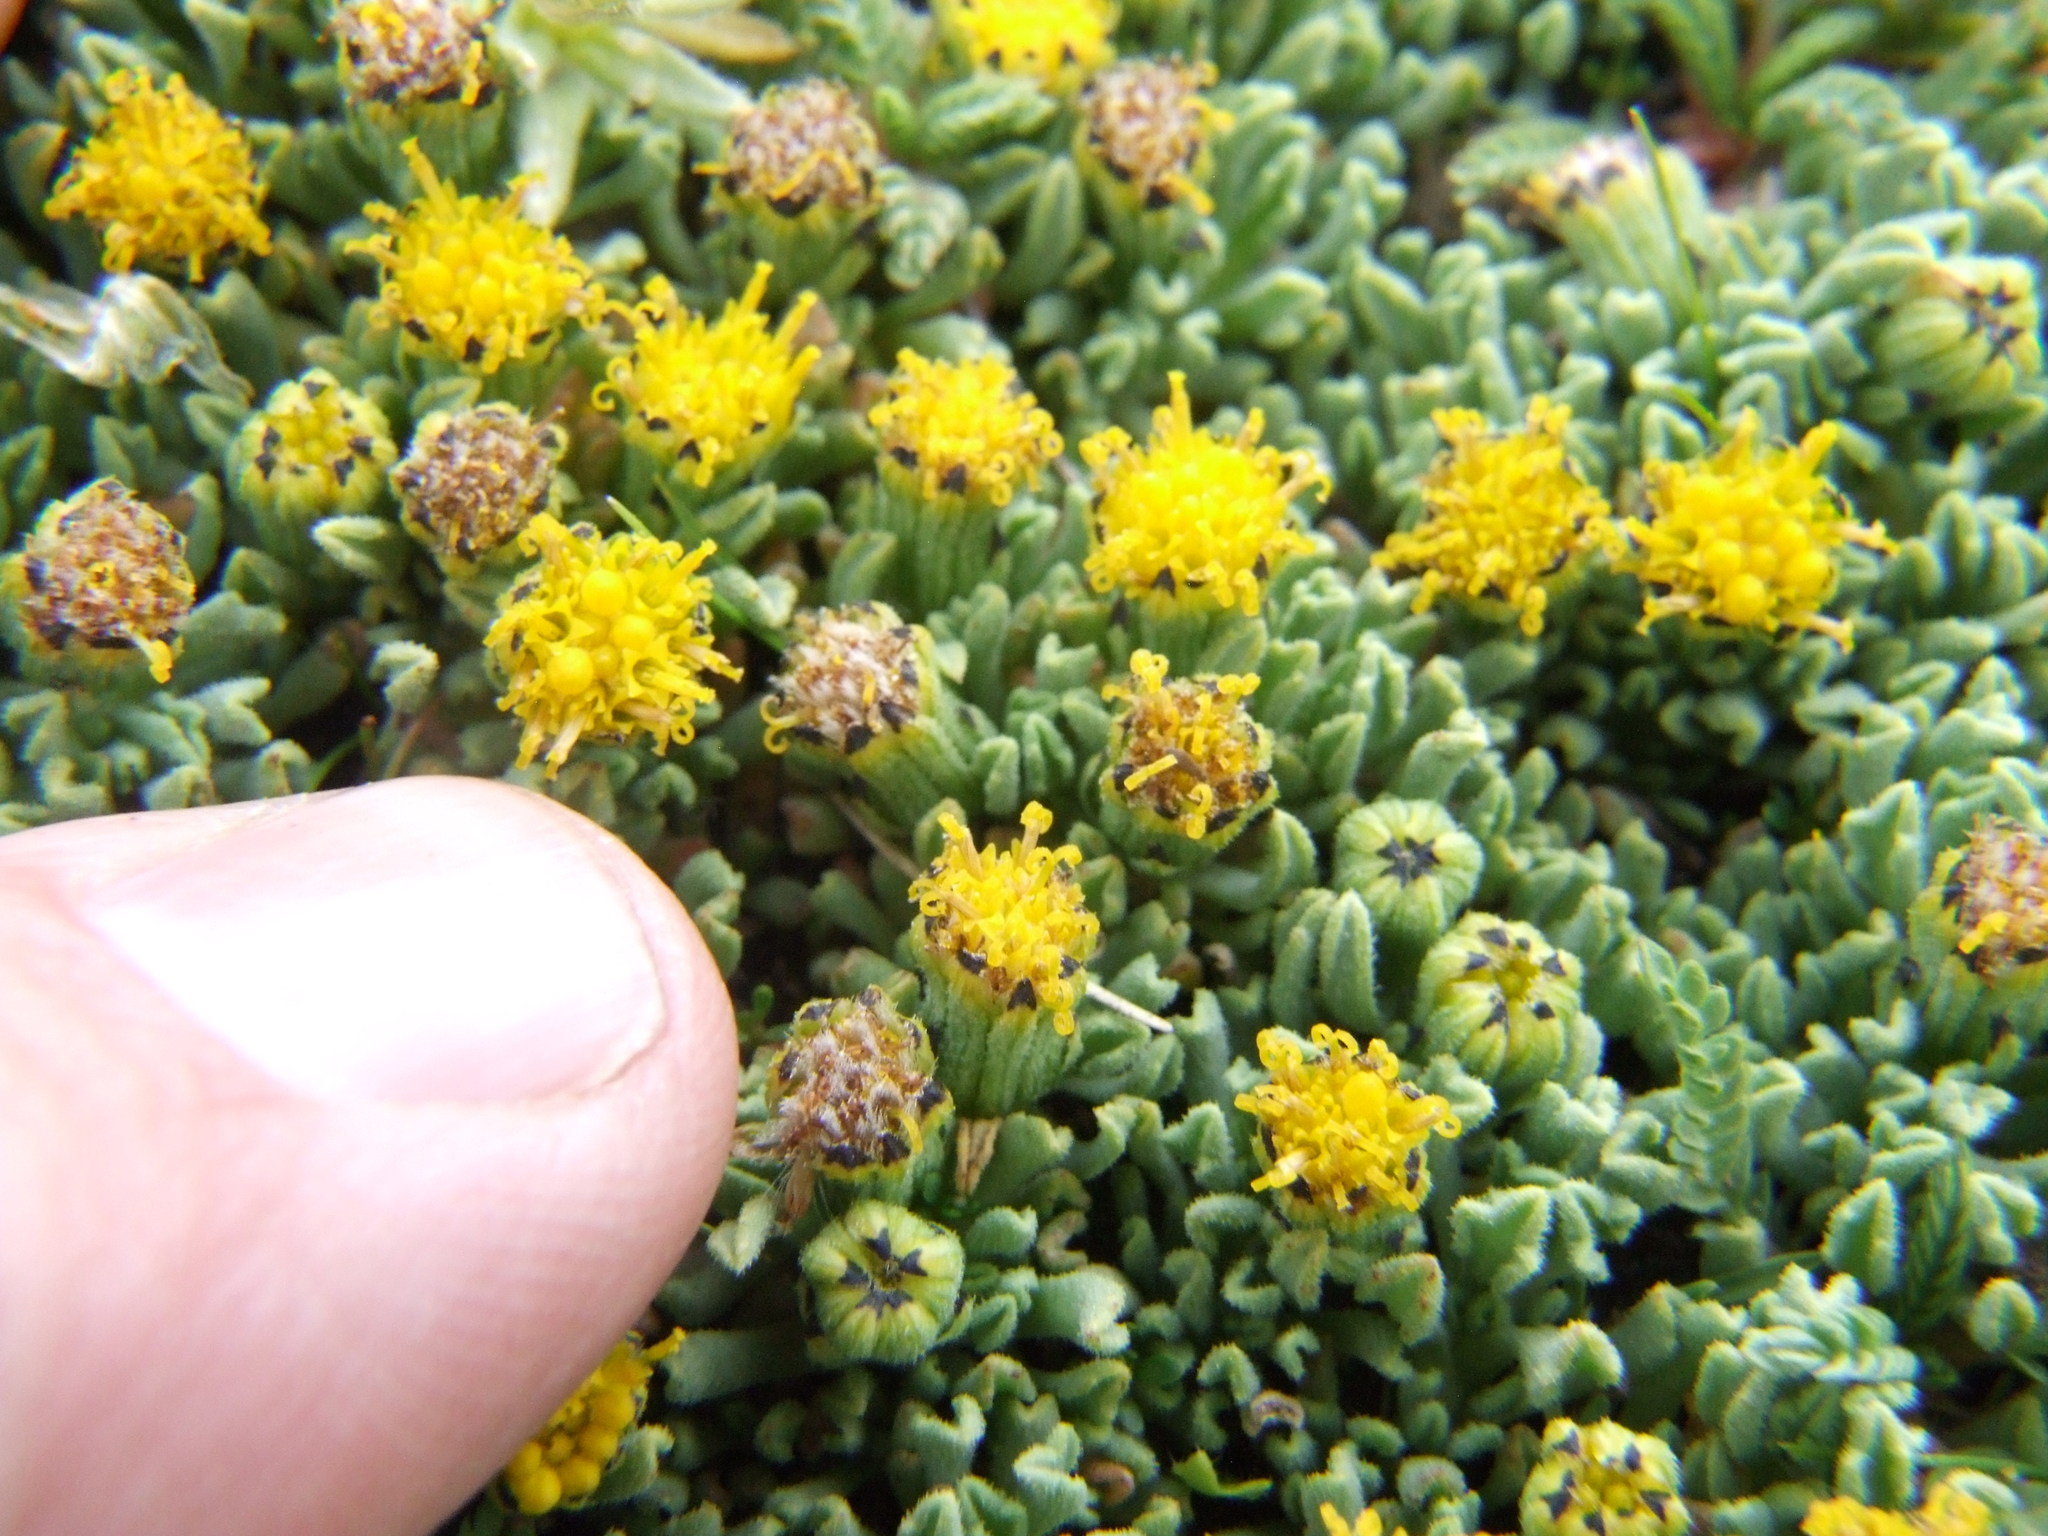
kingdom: Plantae
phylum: Tracheophyta
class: Magnoliopsida
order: Asterales
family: Asteraceae
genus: Senecio
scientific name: Senecio moqueguensis
